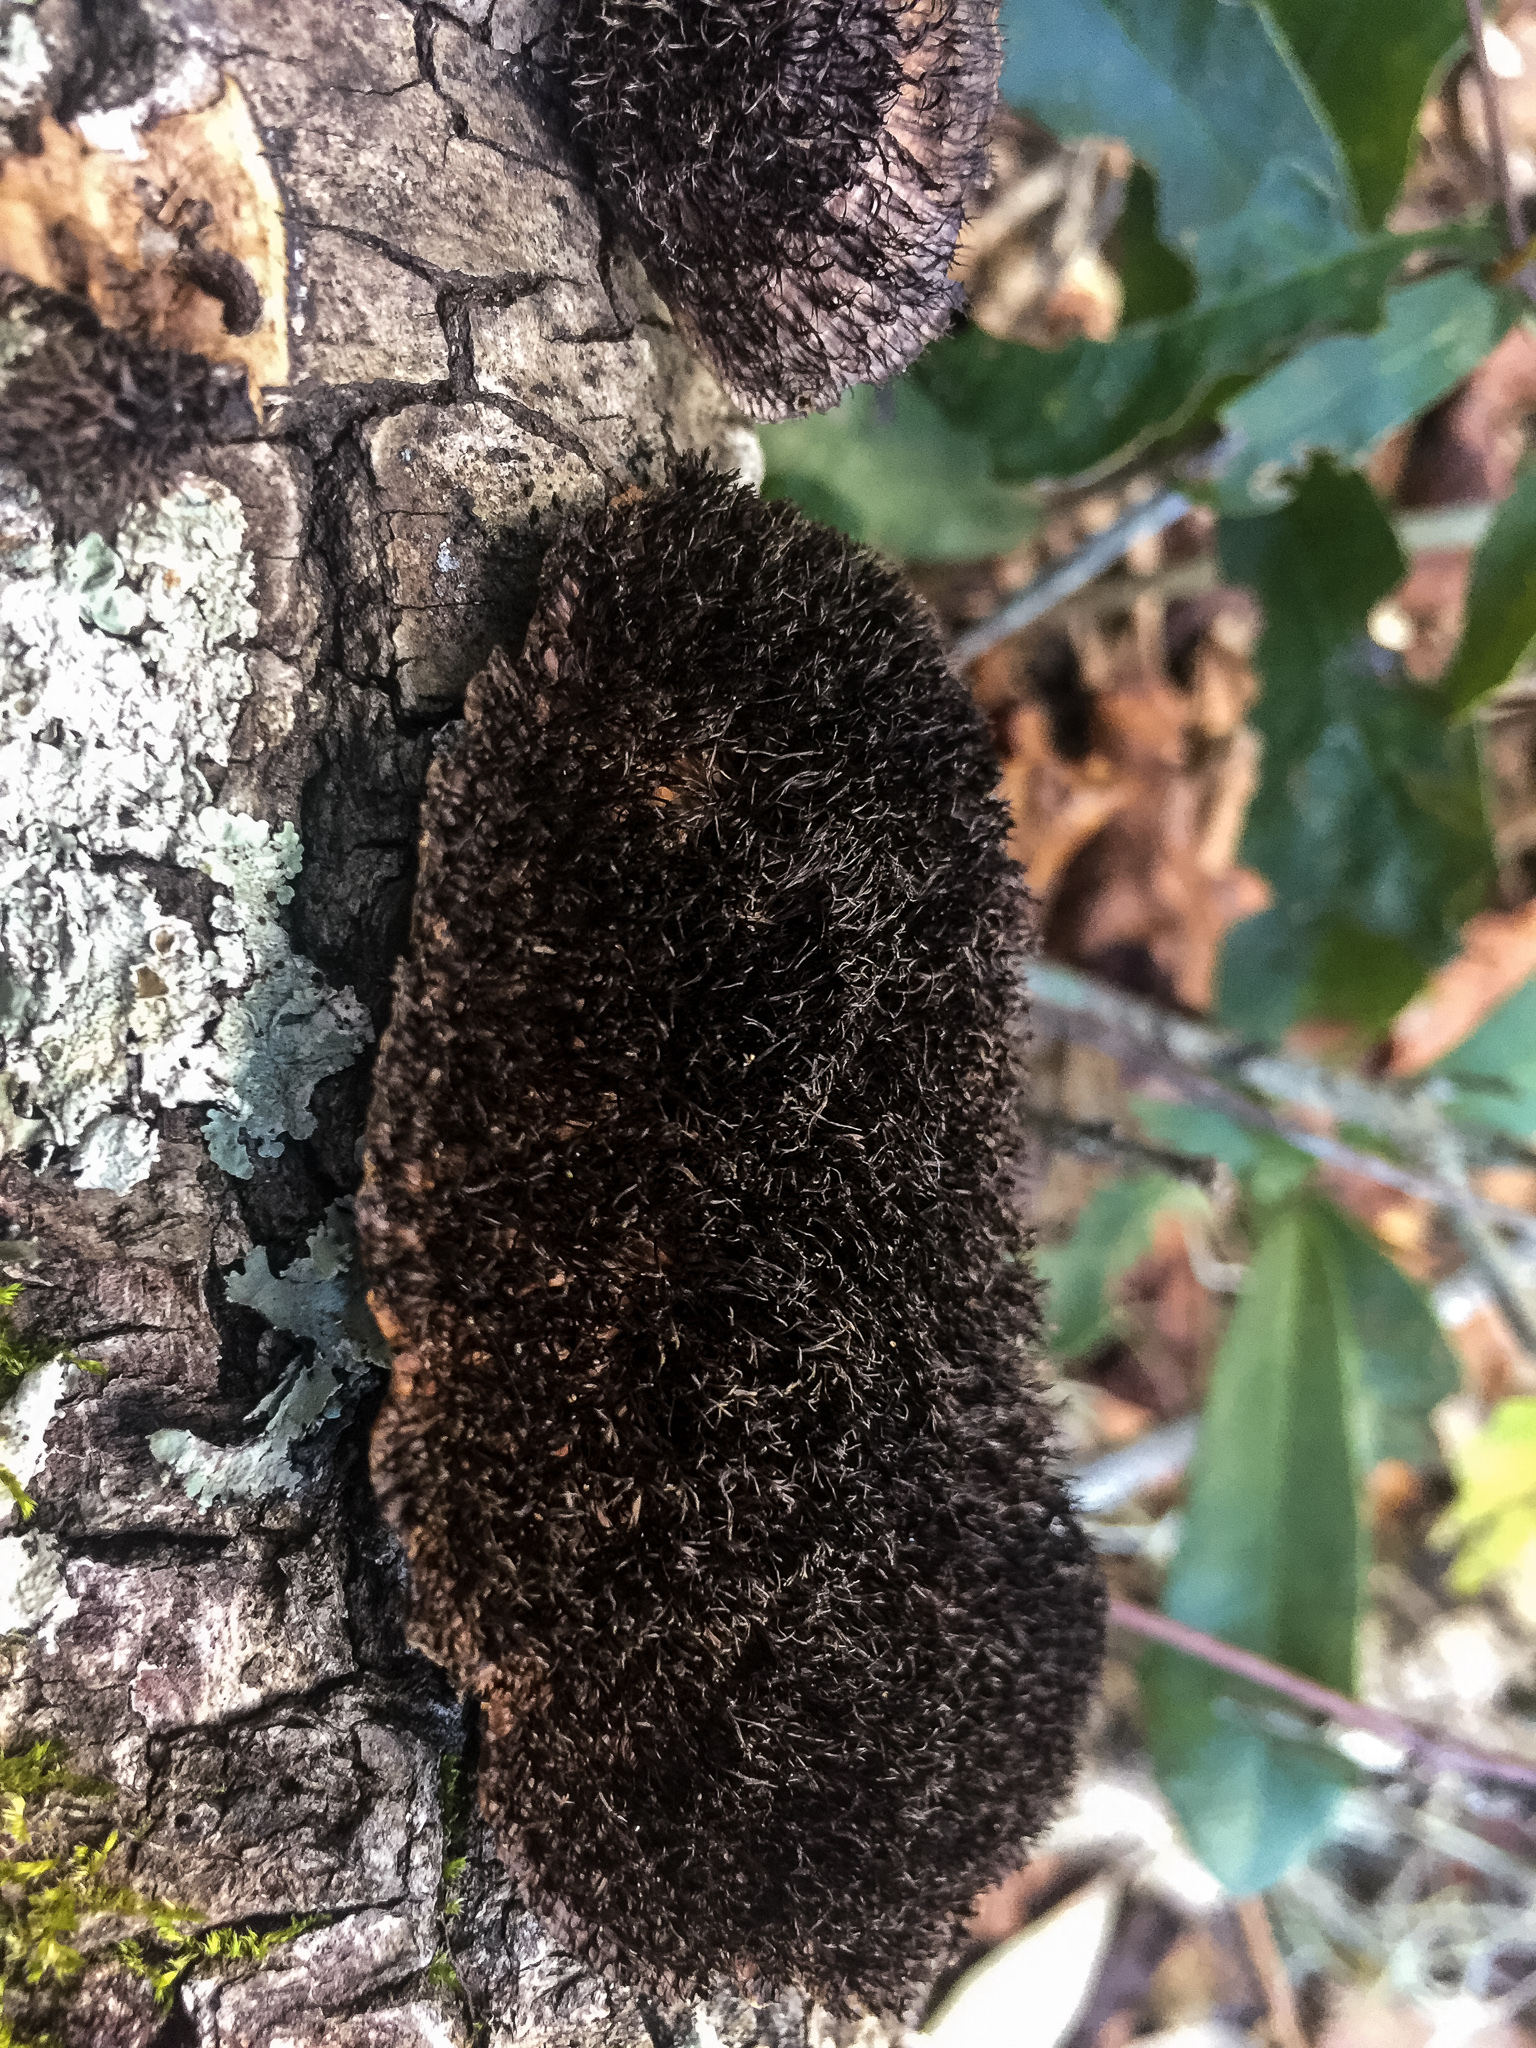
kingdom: Fungi
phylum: Basidiomycota
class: Agaricomycetes
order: Polyporales
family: Cerrenaceae
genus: Cerrena
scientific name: Cerrena hydnoides
